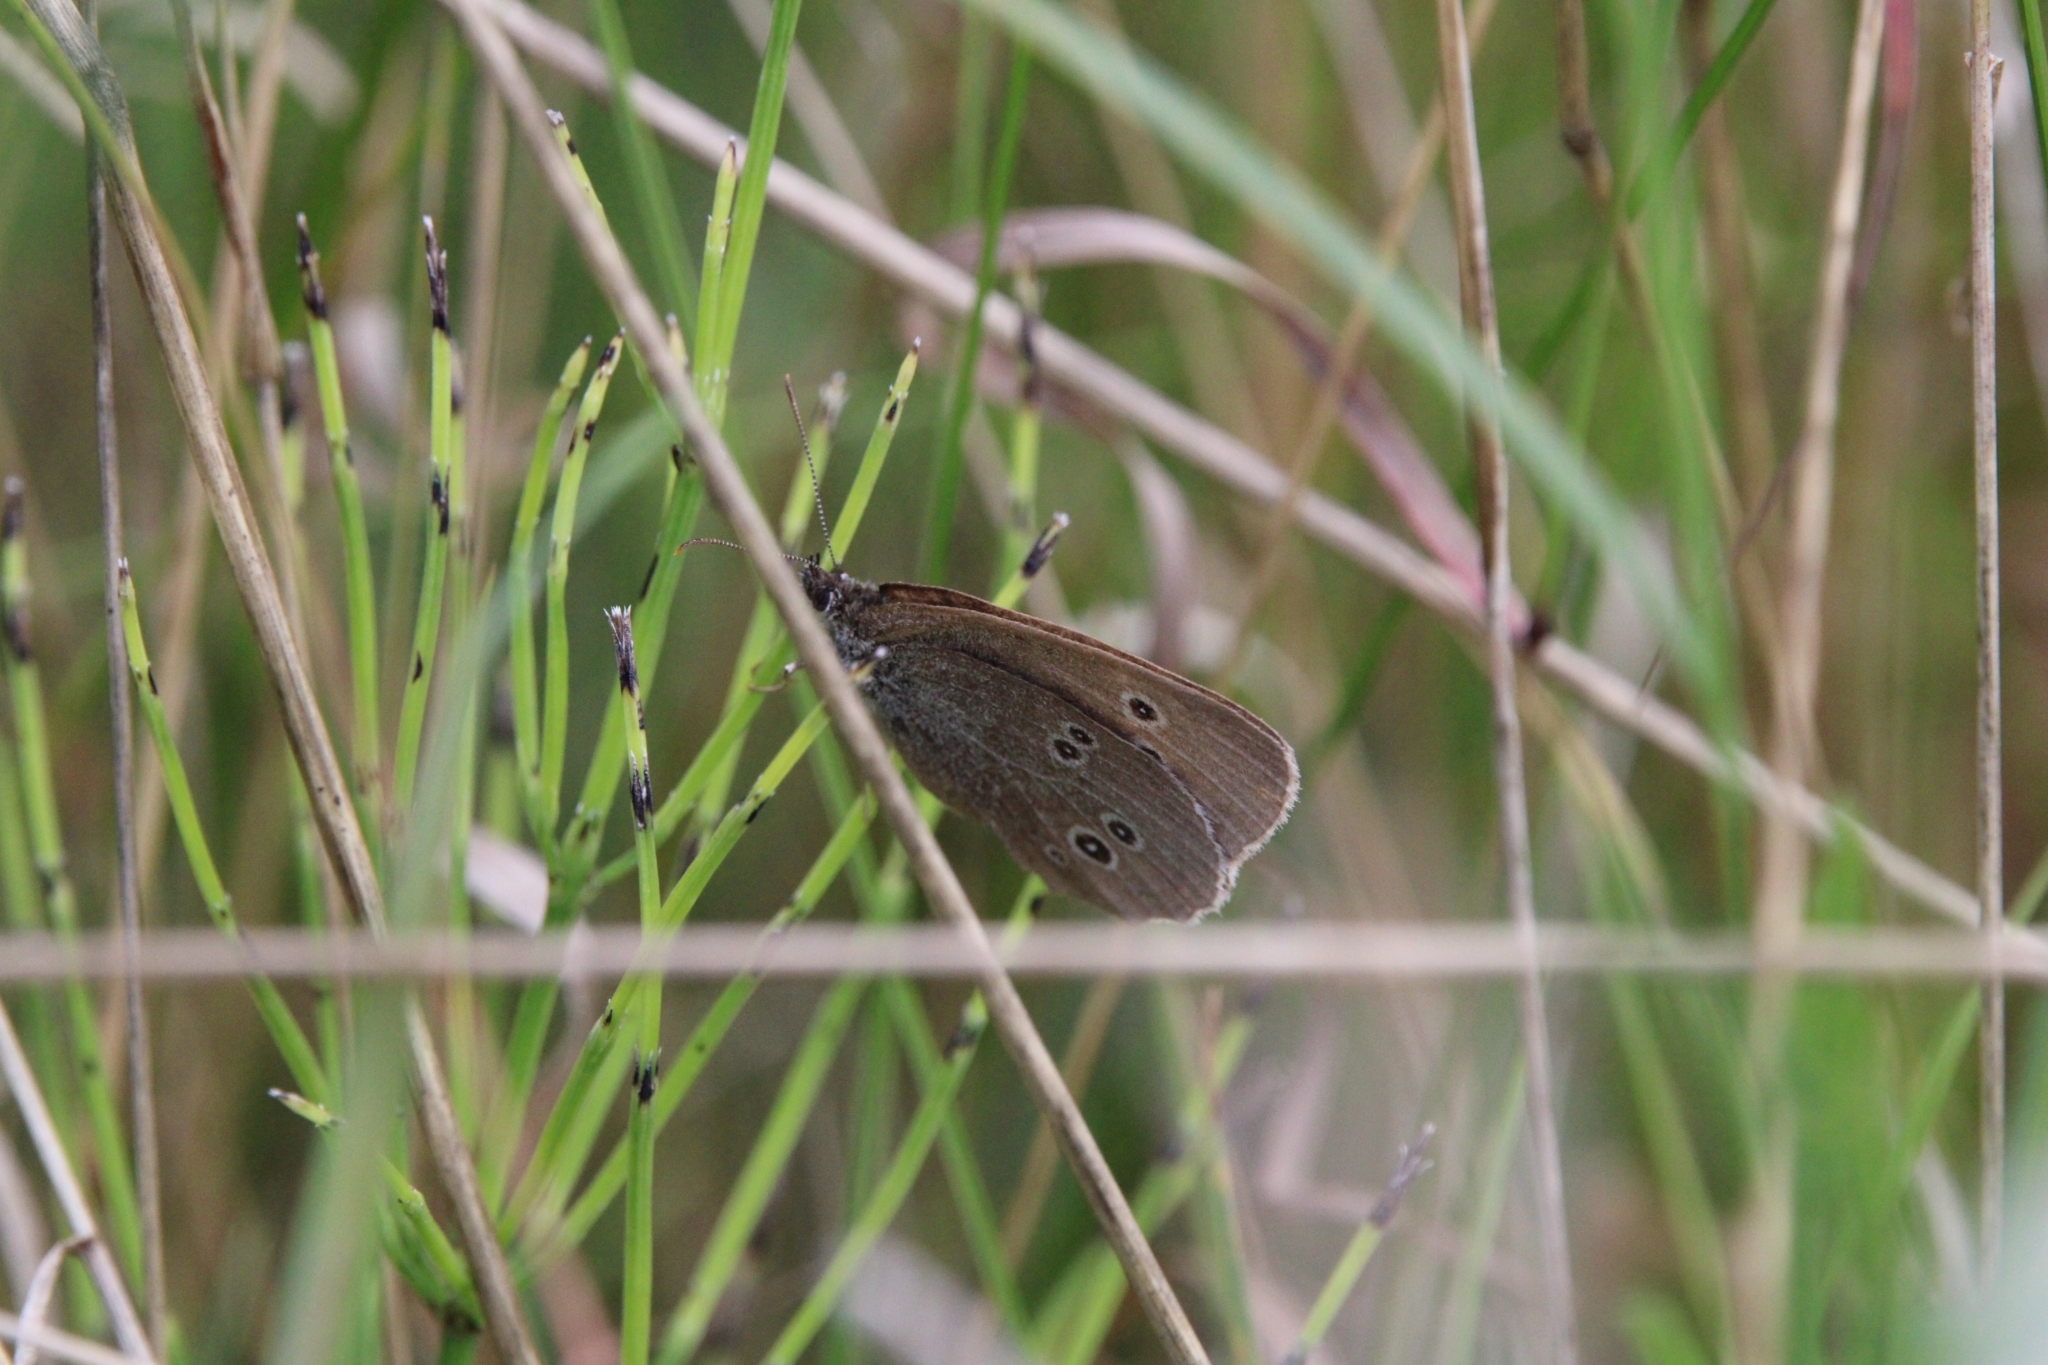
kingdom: Animalia
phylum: Arthropoda
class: Insecta
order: Lepidoptera
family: Nymphalidae
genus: Aphantopus
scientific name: Aphantopus hyperantus
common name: Ringlet
